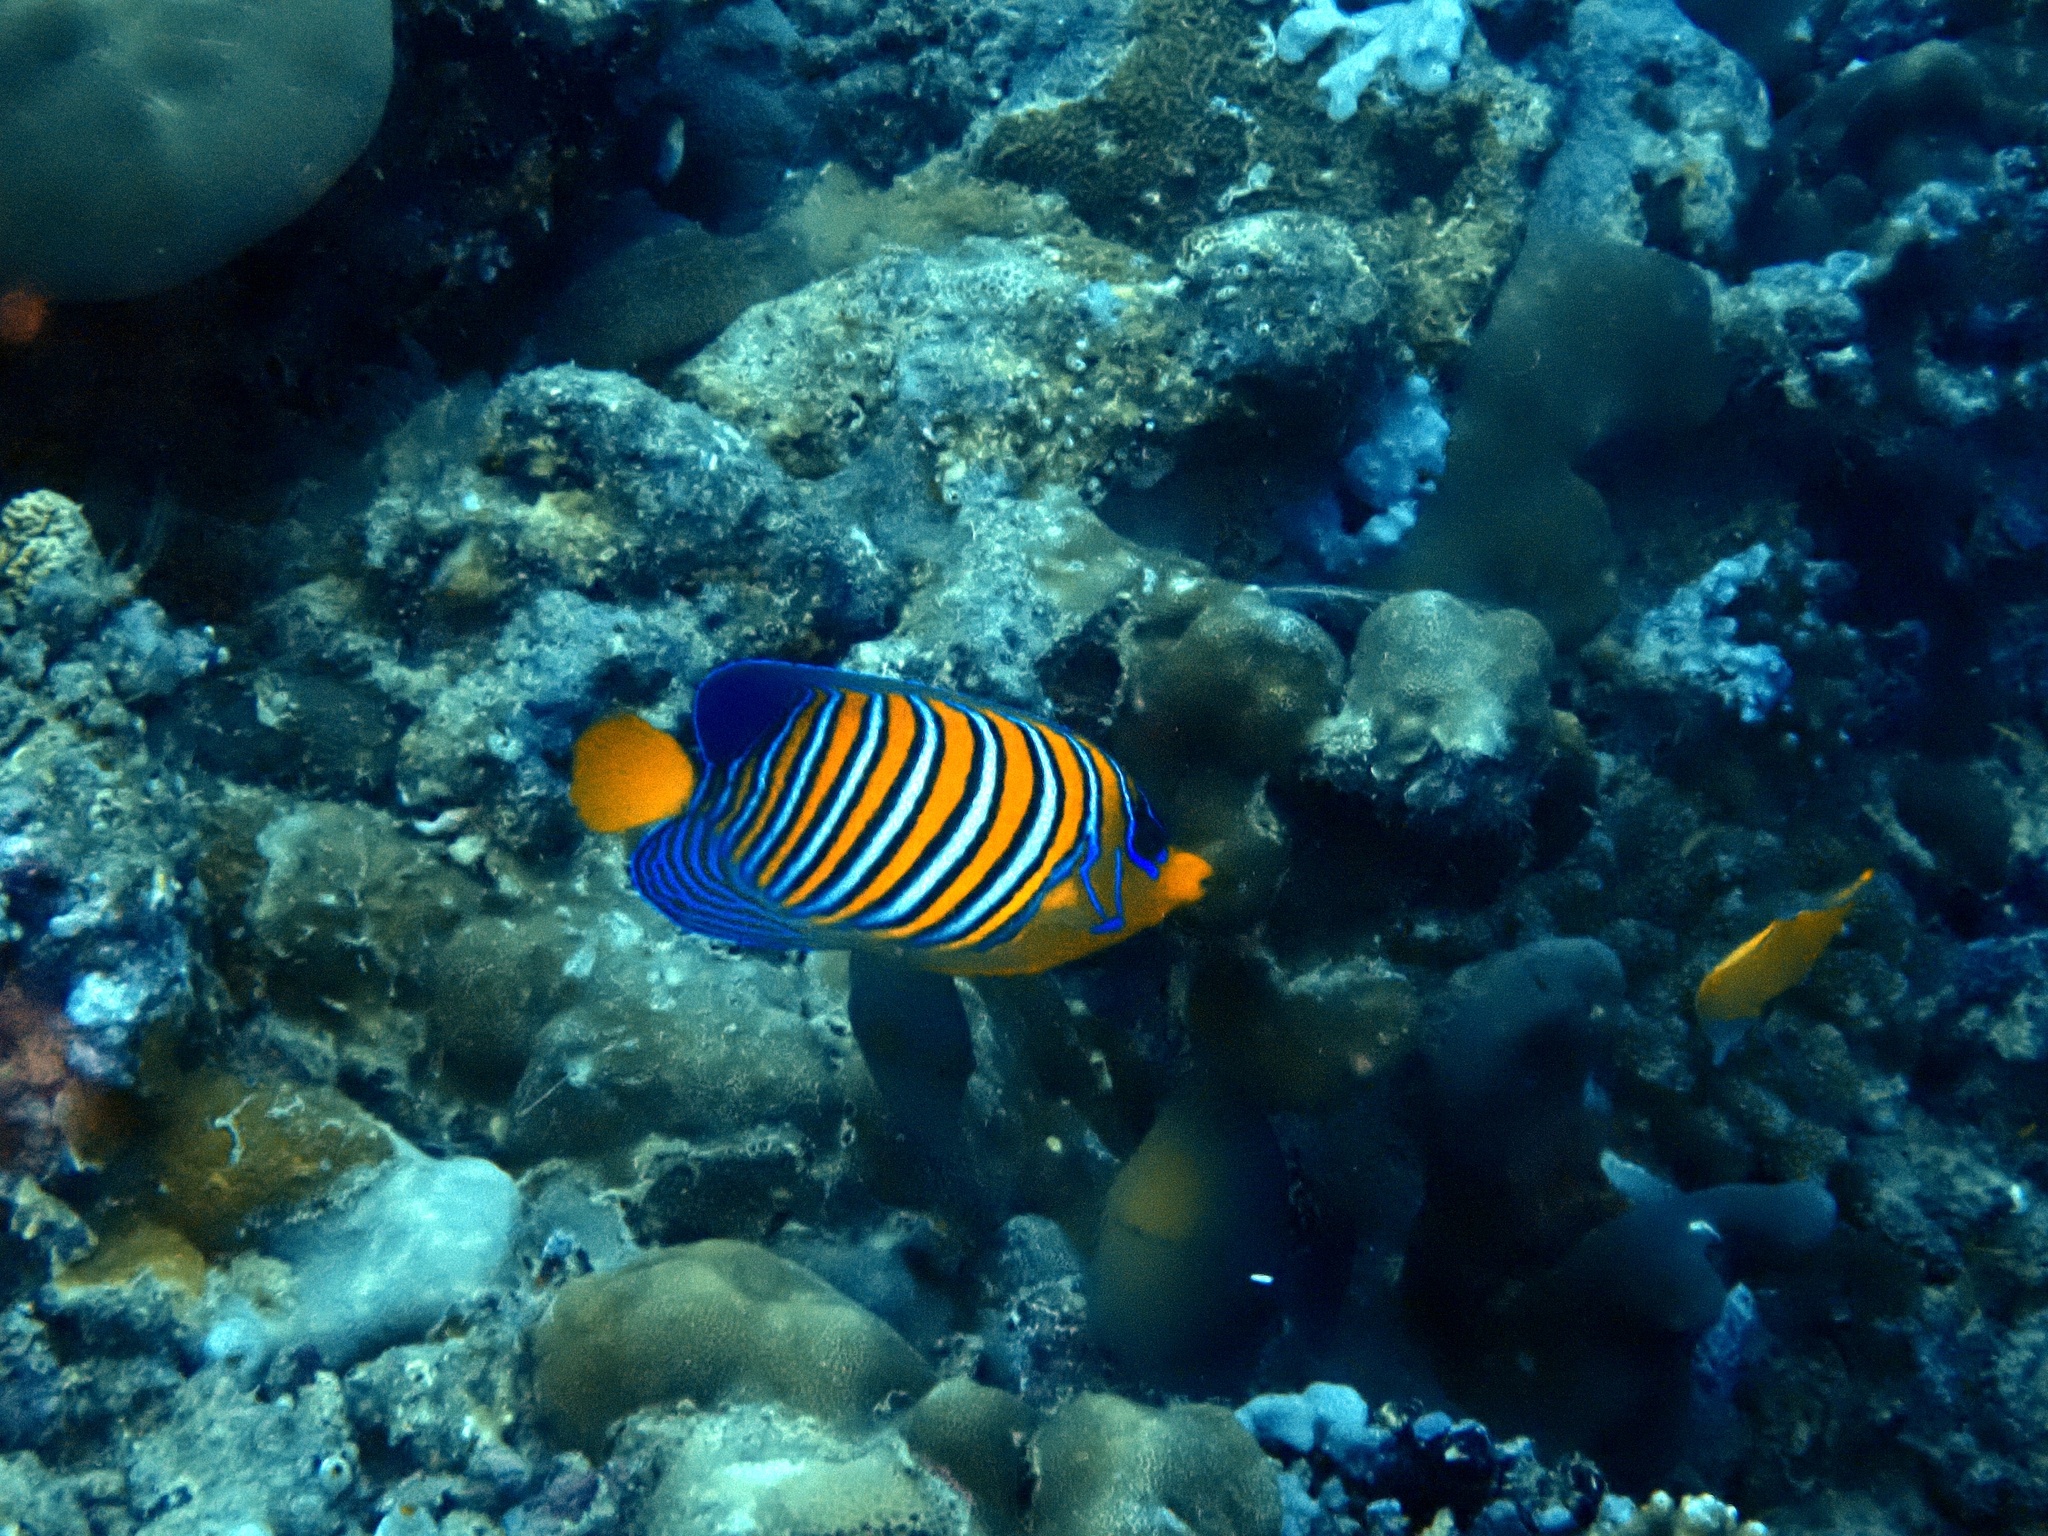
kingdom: Animalia
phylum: Chordata
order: Perciformes
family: Pomacanthidae
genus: Pygoplites
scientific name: Pygoplites diacanthus
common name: Regal angelfish
